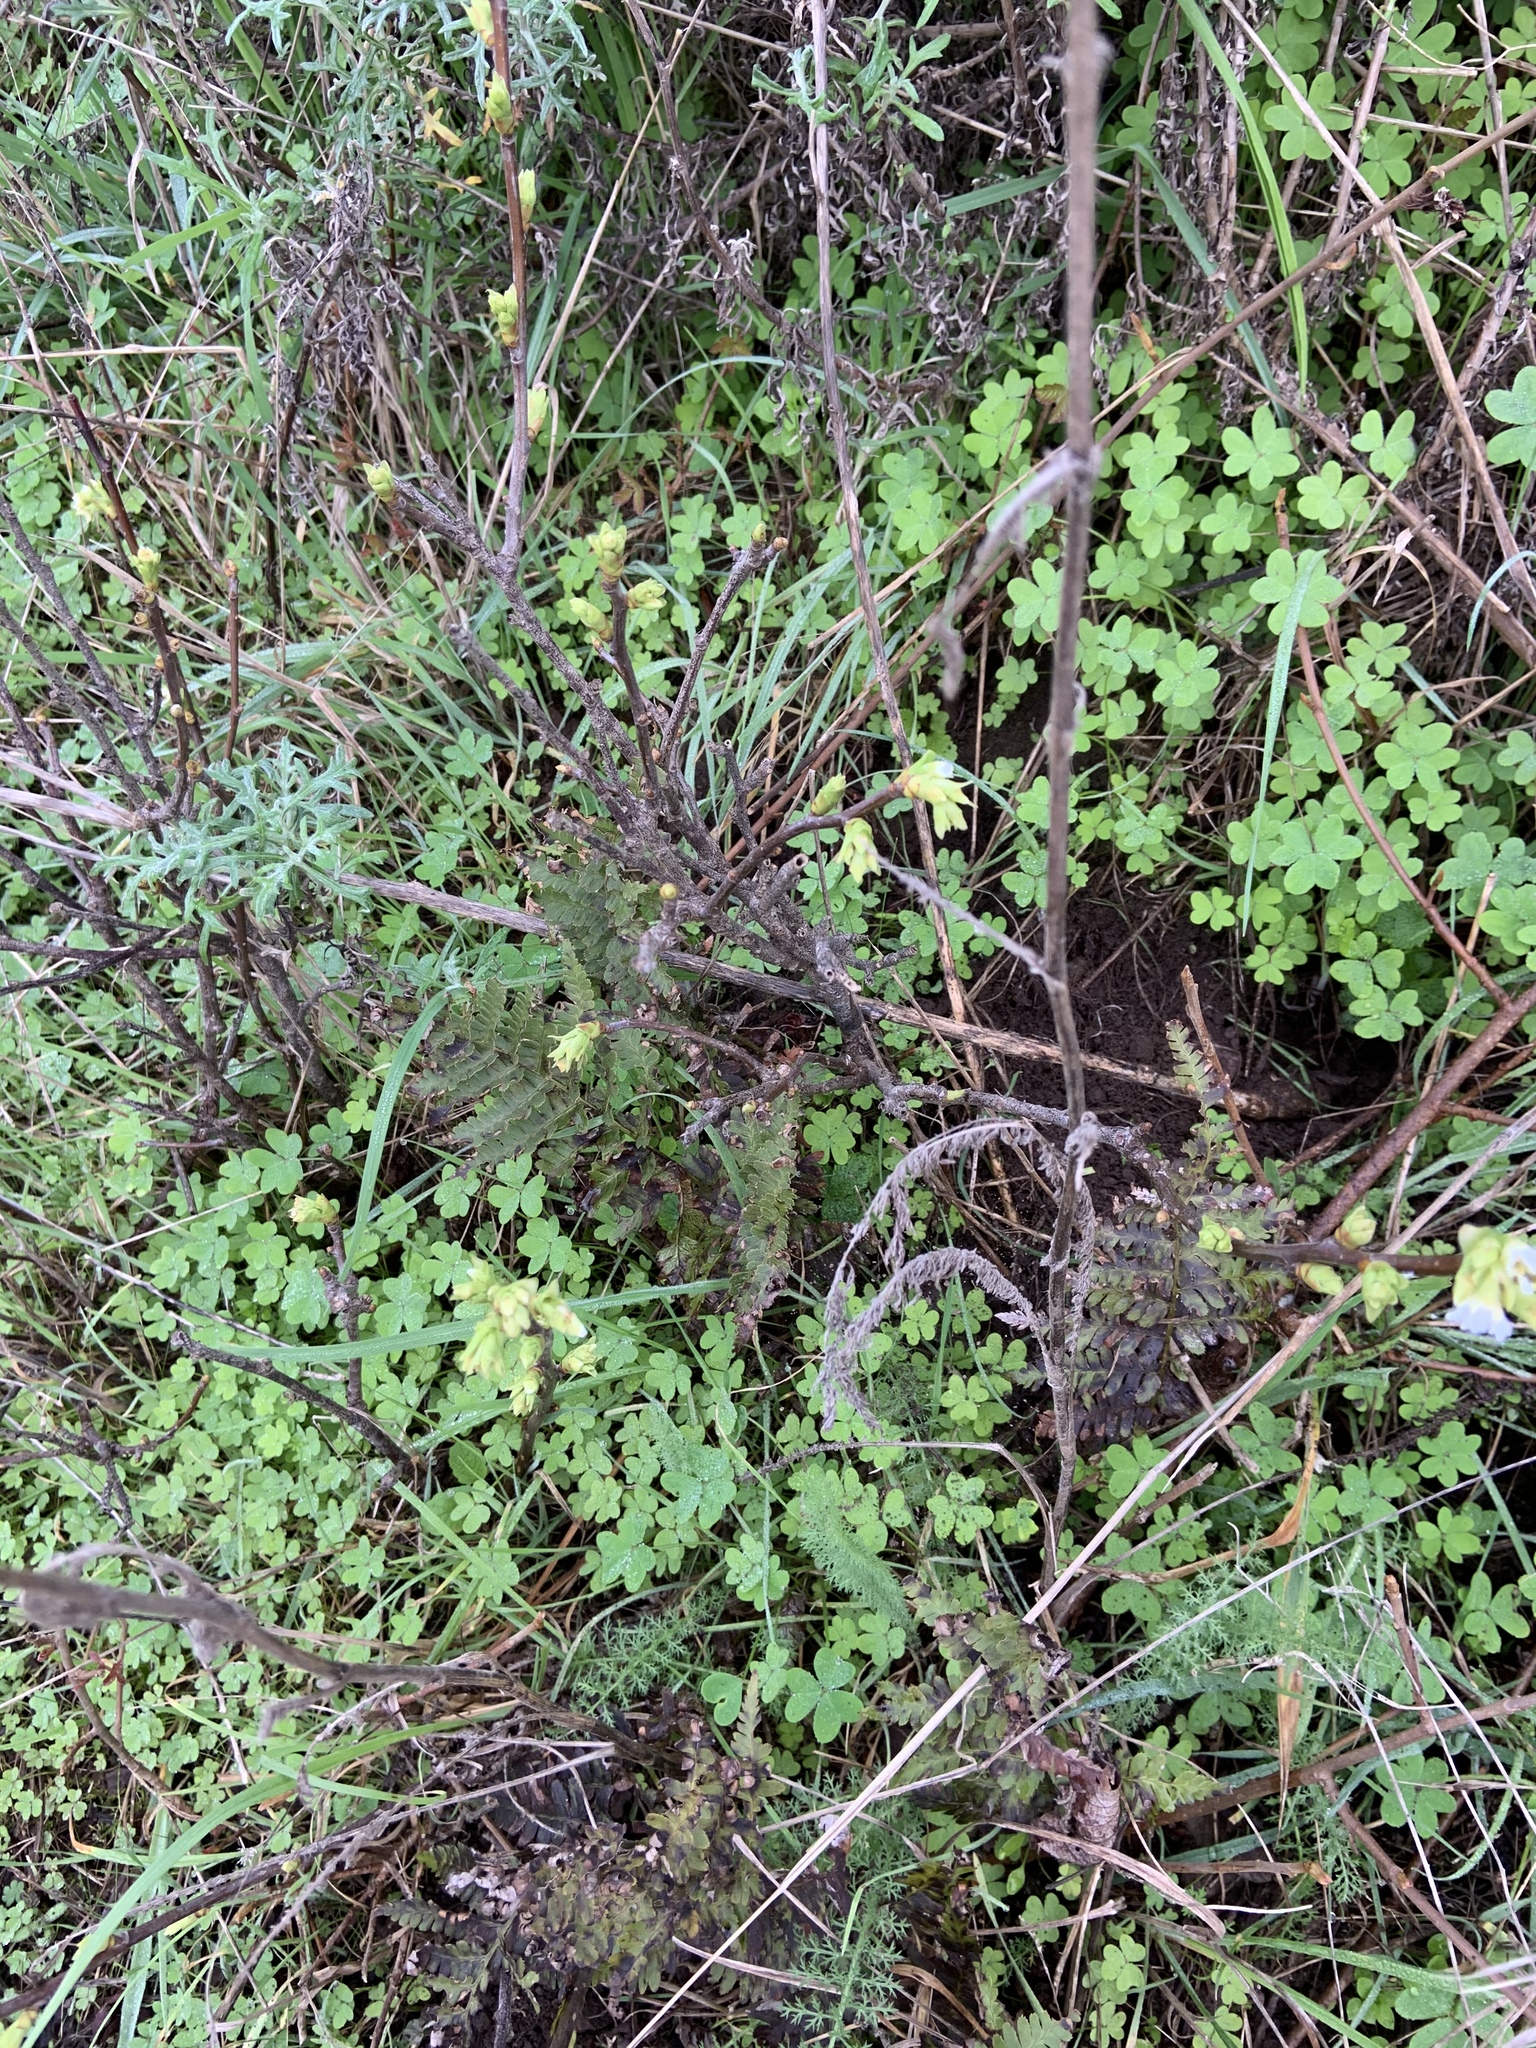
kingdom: Plantae
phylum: Tracheophyta
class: Magnoliopsida
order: Rosales
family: Rosaceae
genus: Oemleria
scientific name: Oemleria cerasiformis
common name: Osoberry
